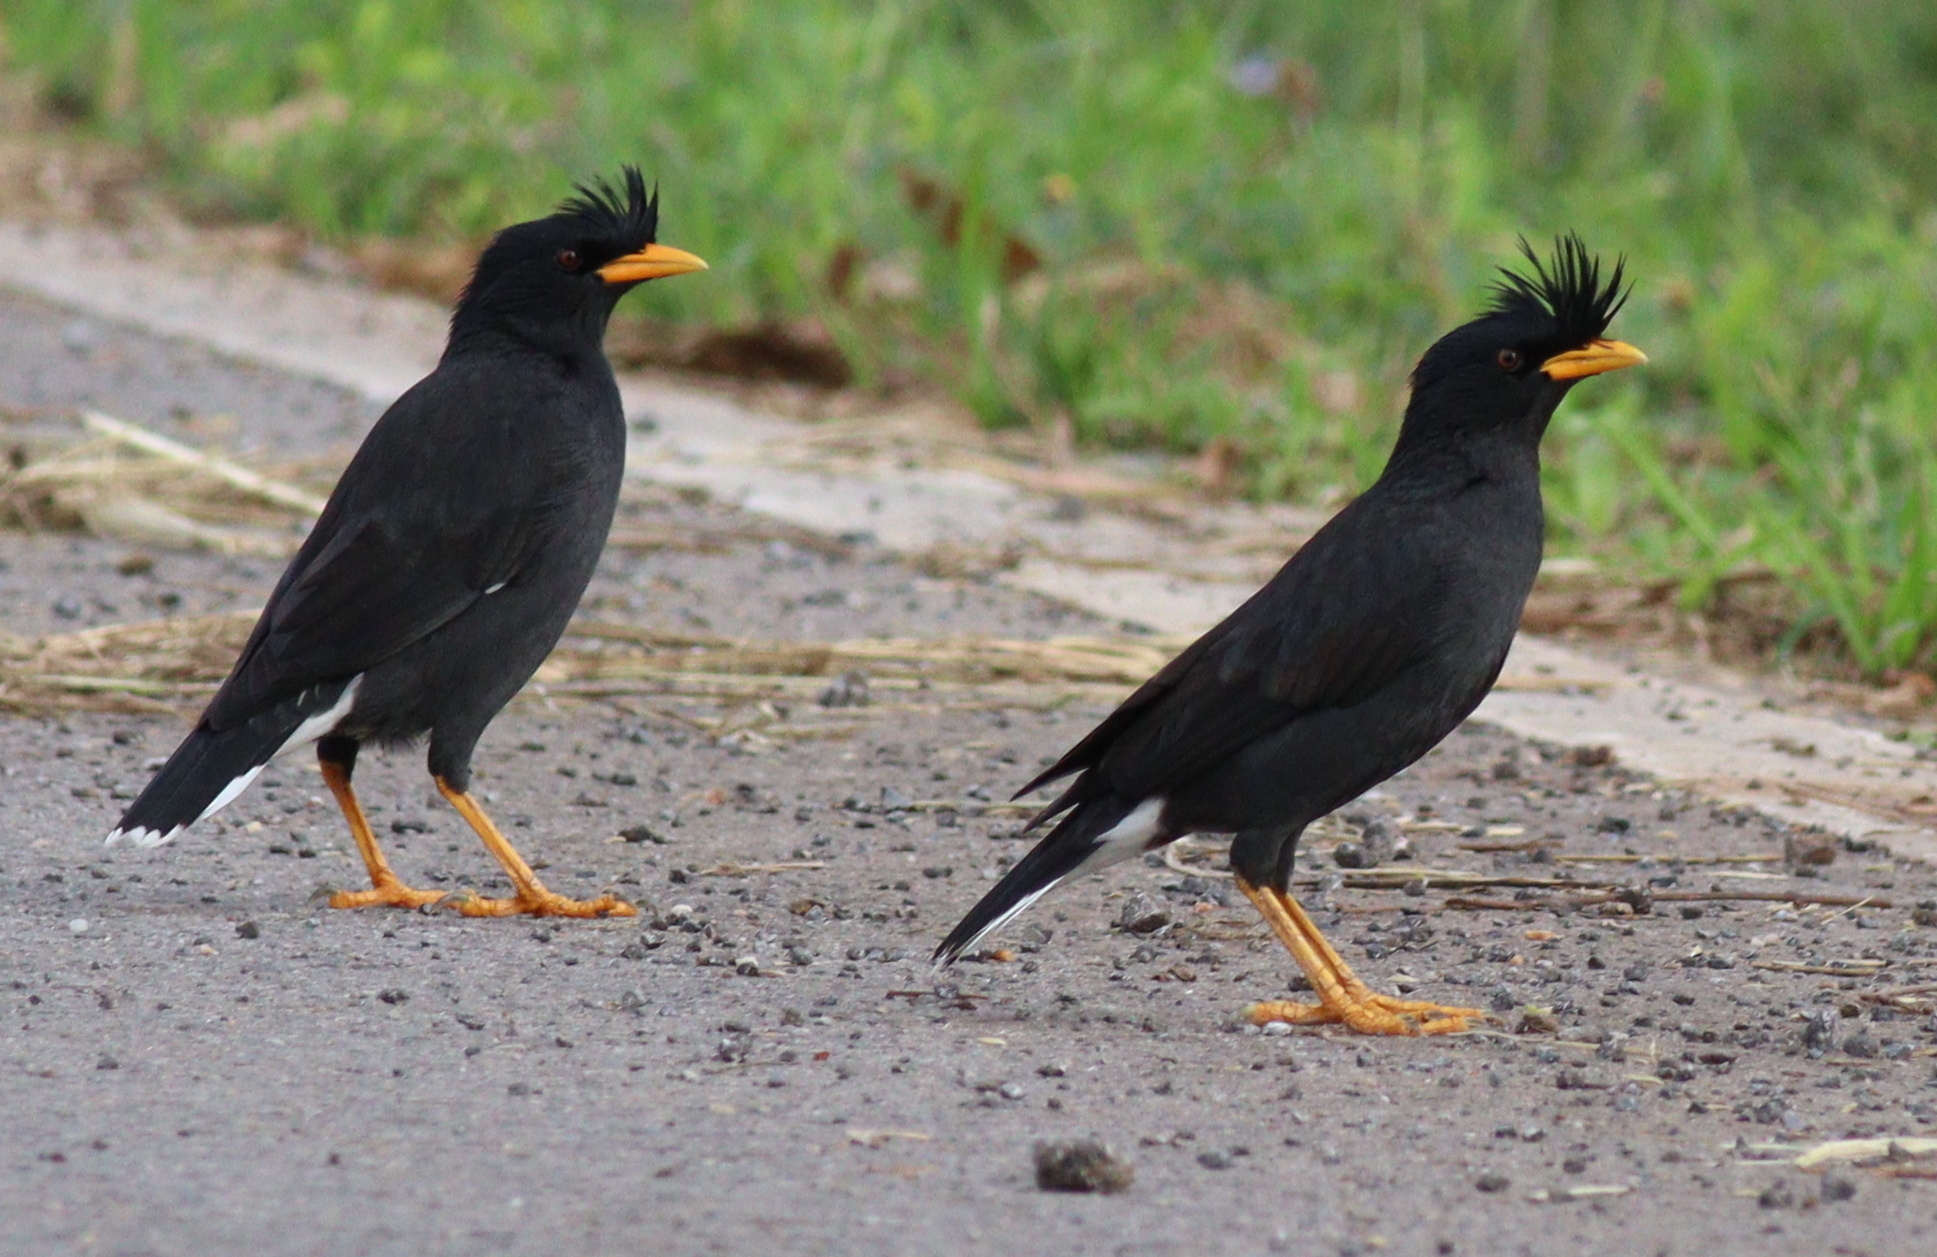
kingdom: Animalia
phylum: Chordata
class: Aves
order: Passeriformes
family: Sturnidae
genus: Acridotheres
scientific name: Acridotheres grandis
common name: Great myna
